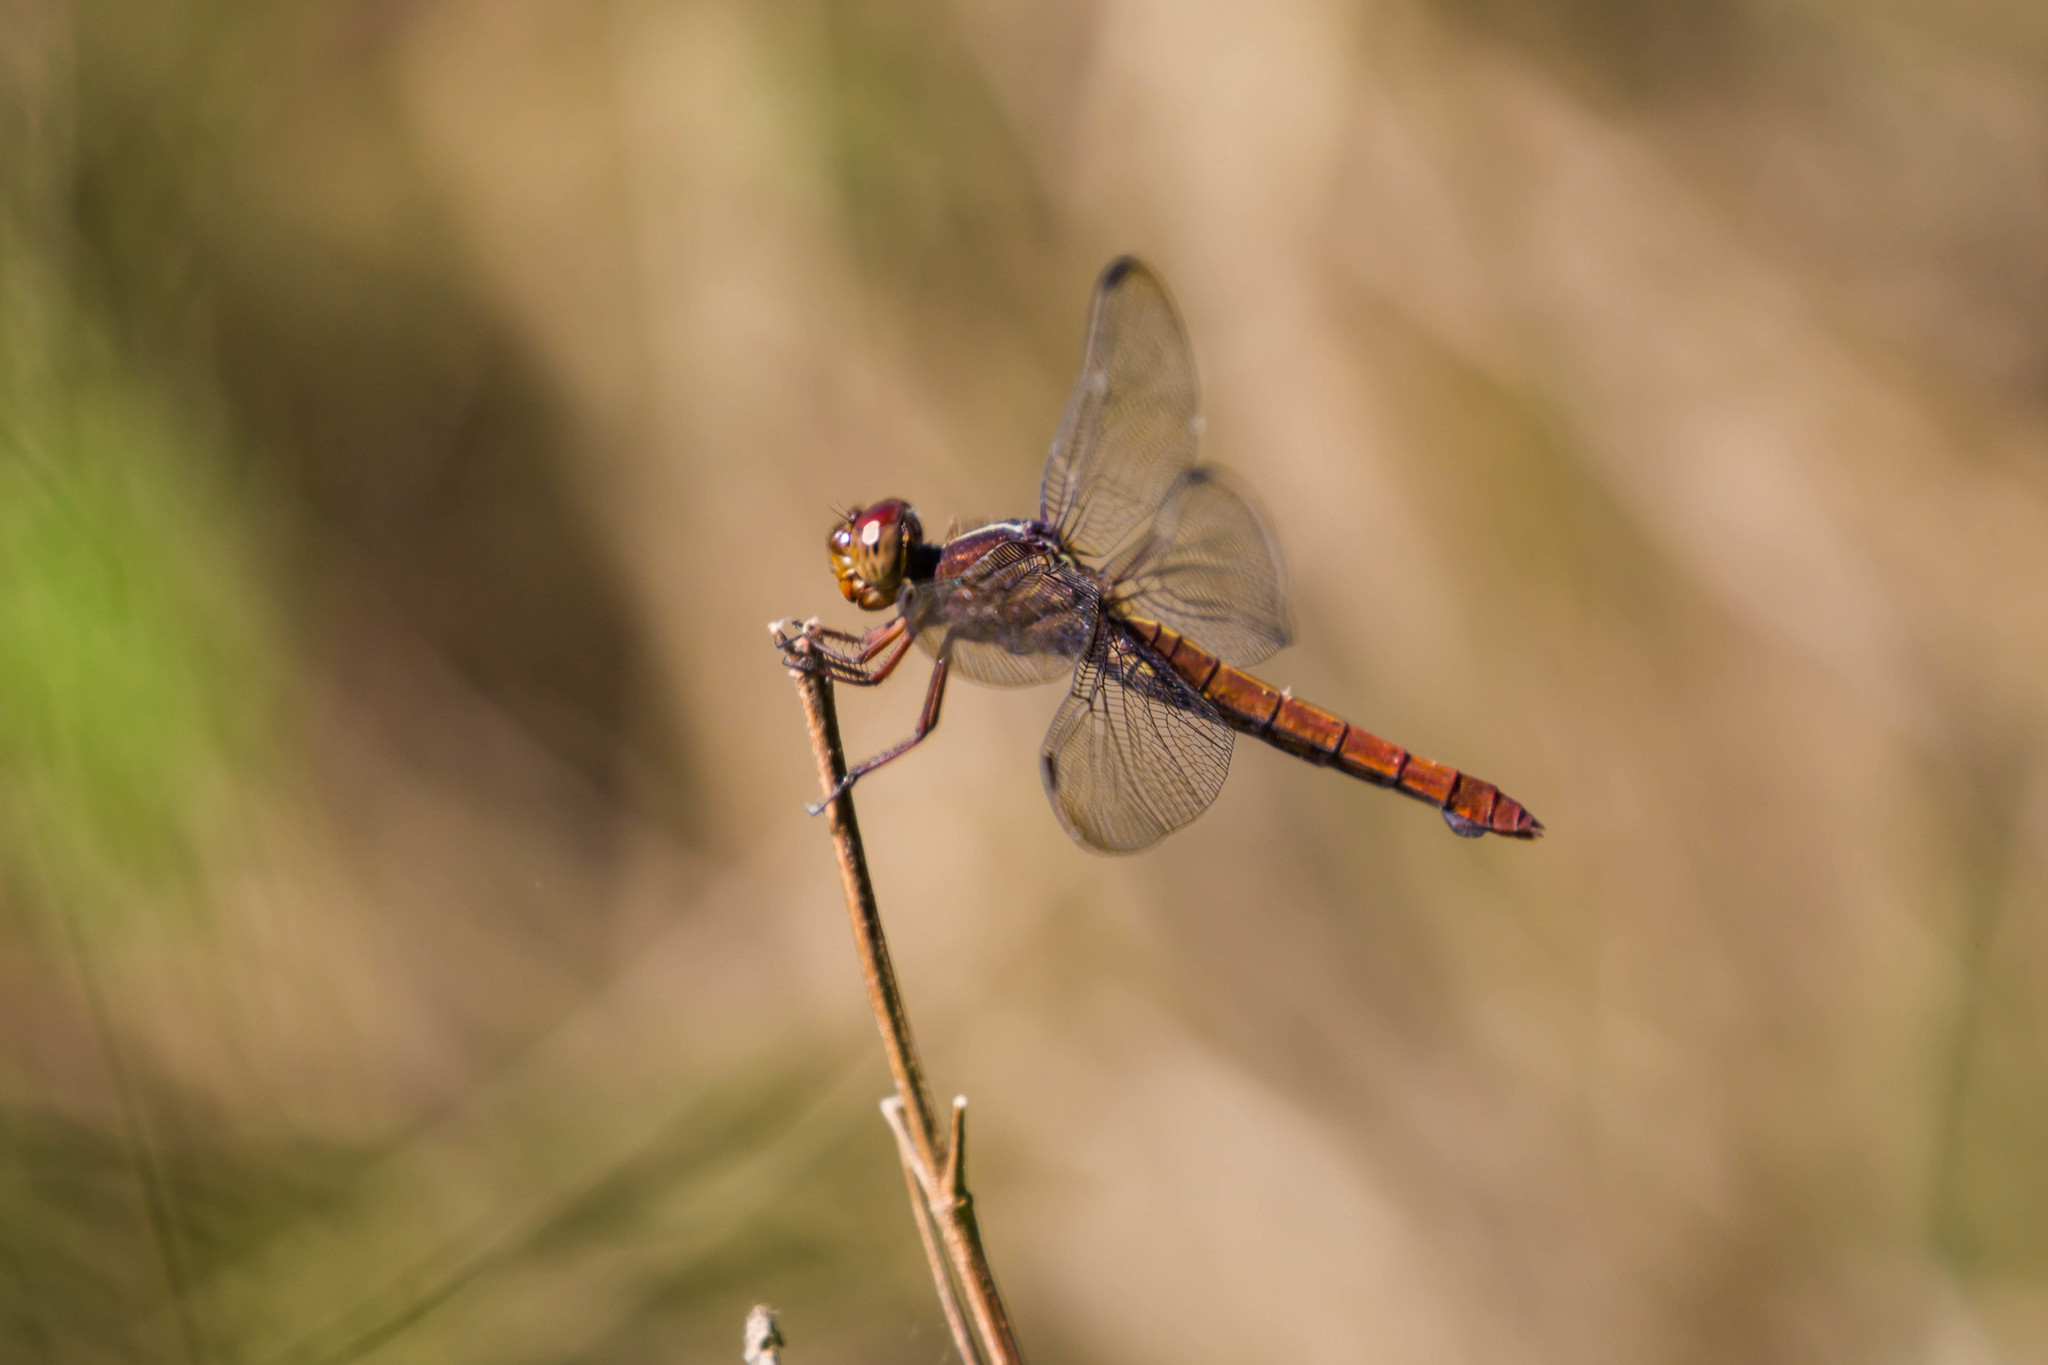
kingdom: Animalia
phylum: Arthropoda
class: Insecta
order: Odonata
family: Libellulidae
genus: Orthemis
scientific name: Orthemis discolor
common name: Carmine skimmer
